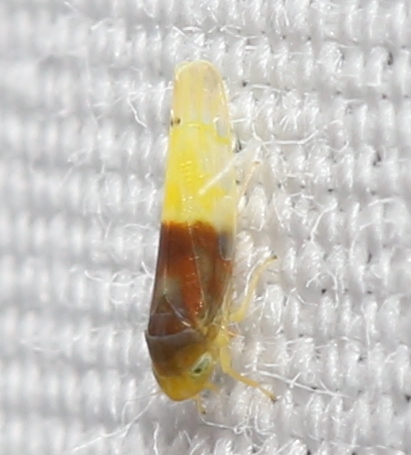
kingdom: Animalia
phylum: Arthropoda
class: Insecta
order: Hemiptera
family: Cicadellidae
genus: Eratoneura
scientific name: Eratoneura basilaris
